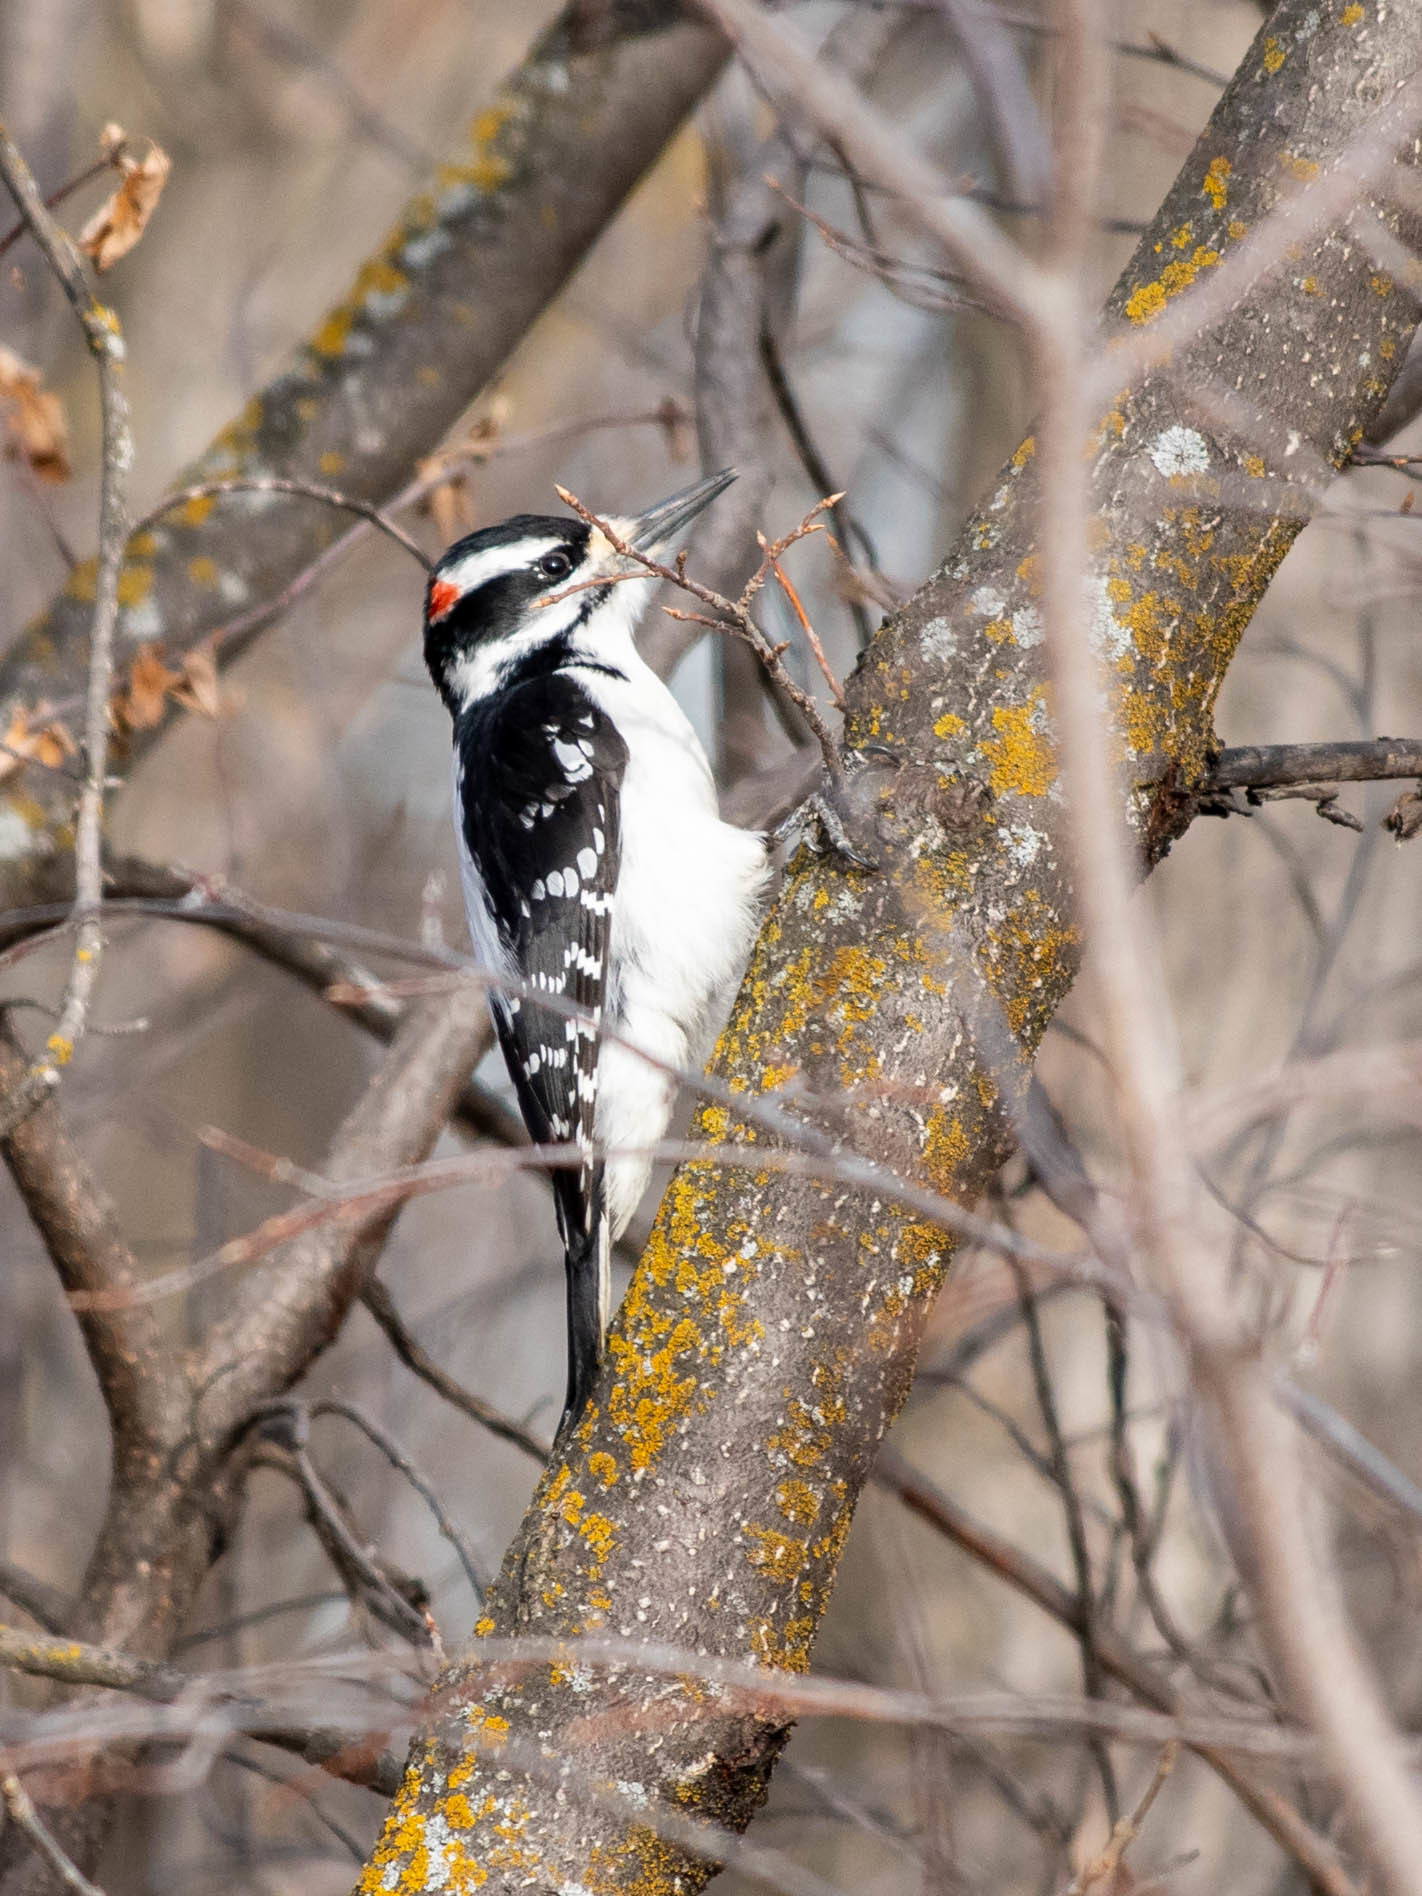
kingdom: Animalia
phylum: Chordata
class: Aves
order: Piciformes
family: Picidae
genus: Leuconotopicus
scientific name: Leuconotopicus villosus
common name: Hairy woodpecker
